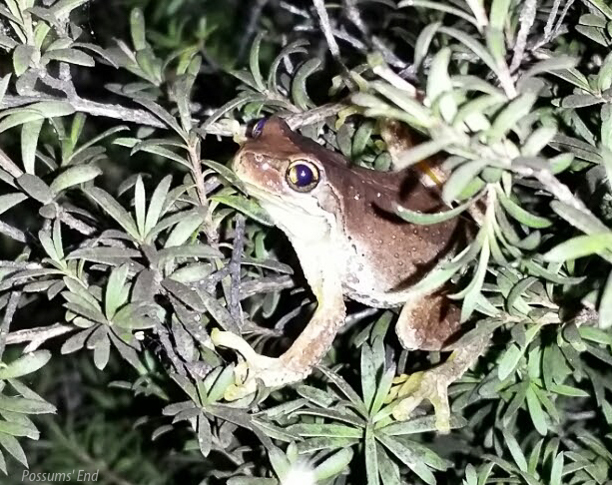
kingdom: Animalia
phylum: Chordata
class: Amphibia
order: Anura
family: Pelodryadidae
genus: Litoria
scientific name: Litoria ewingii
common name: Southern brown tree frog
